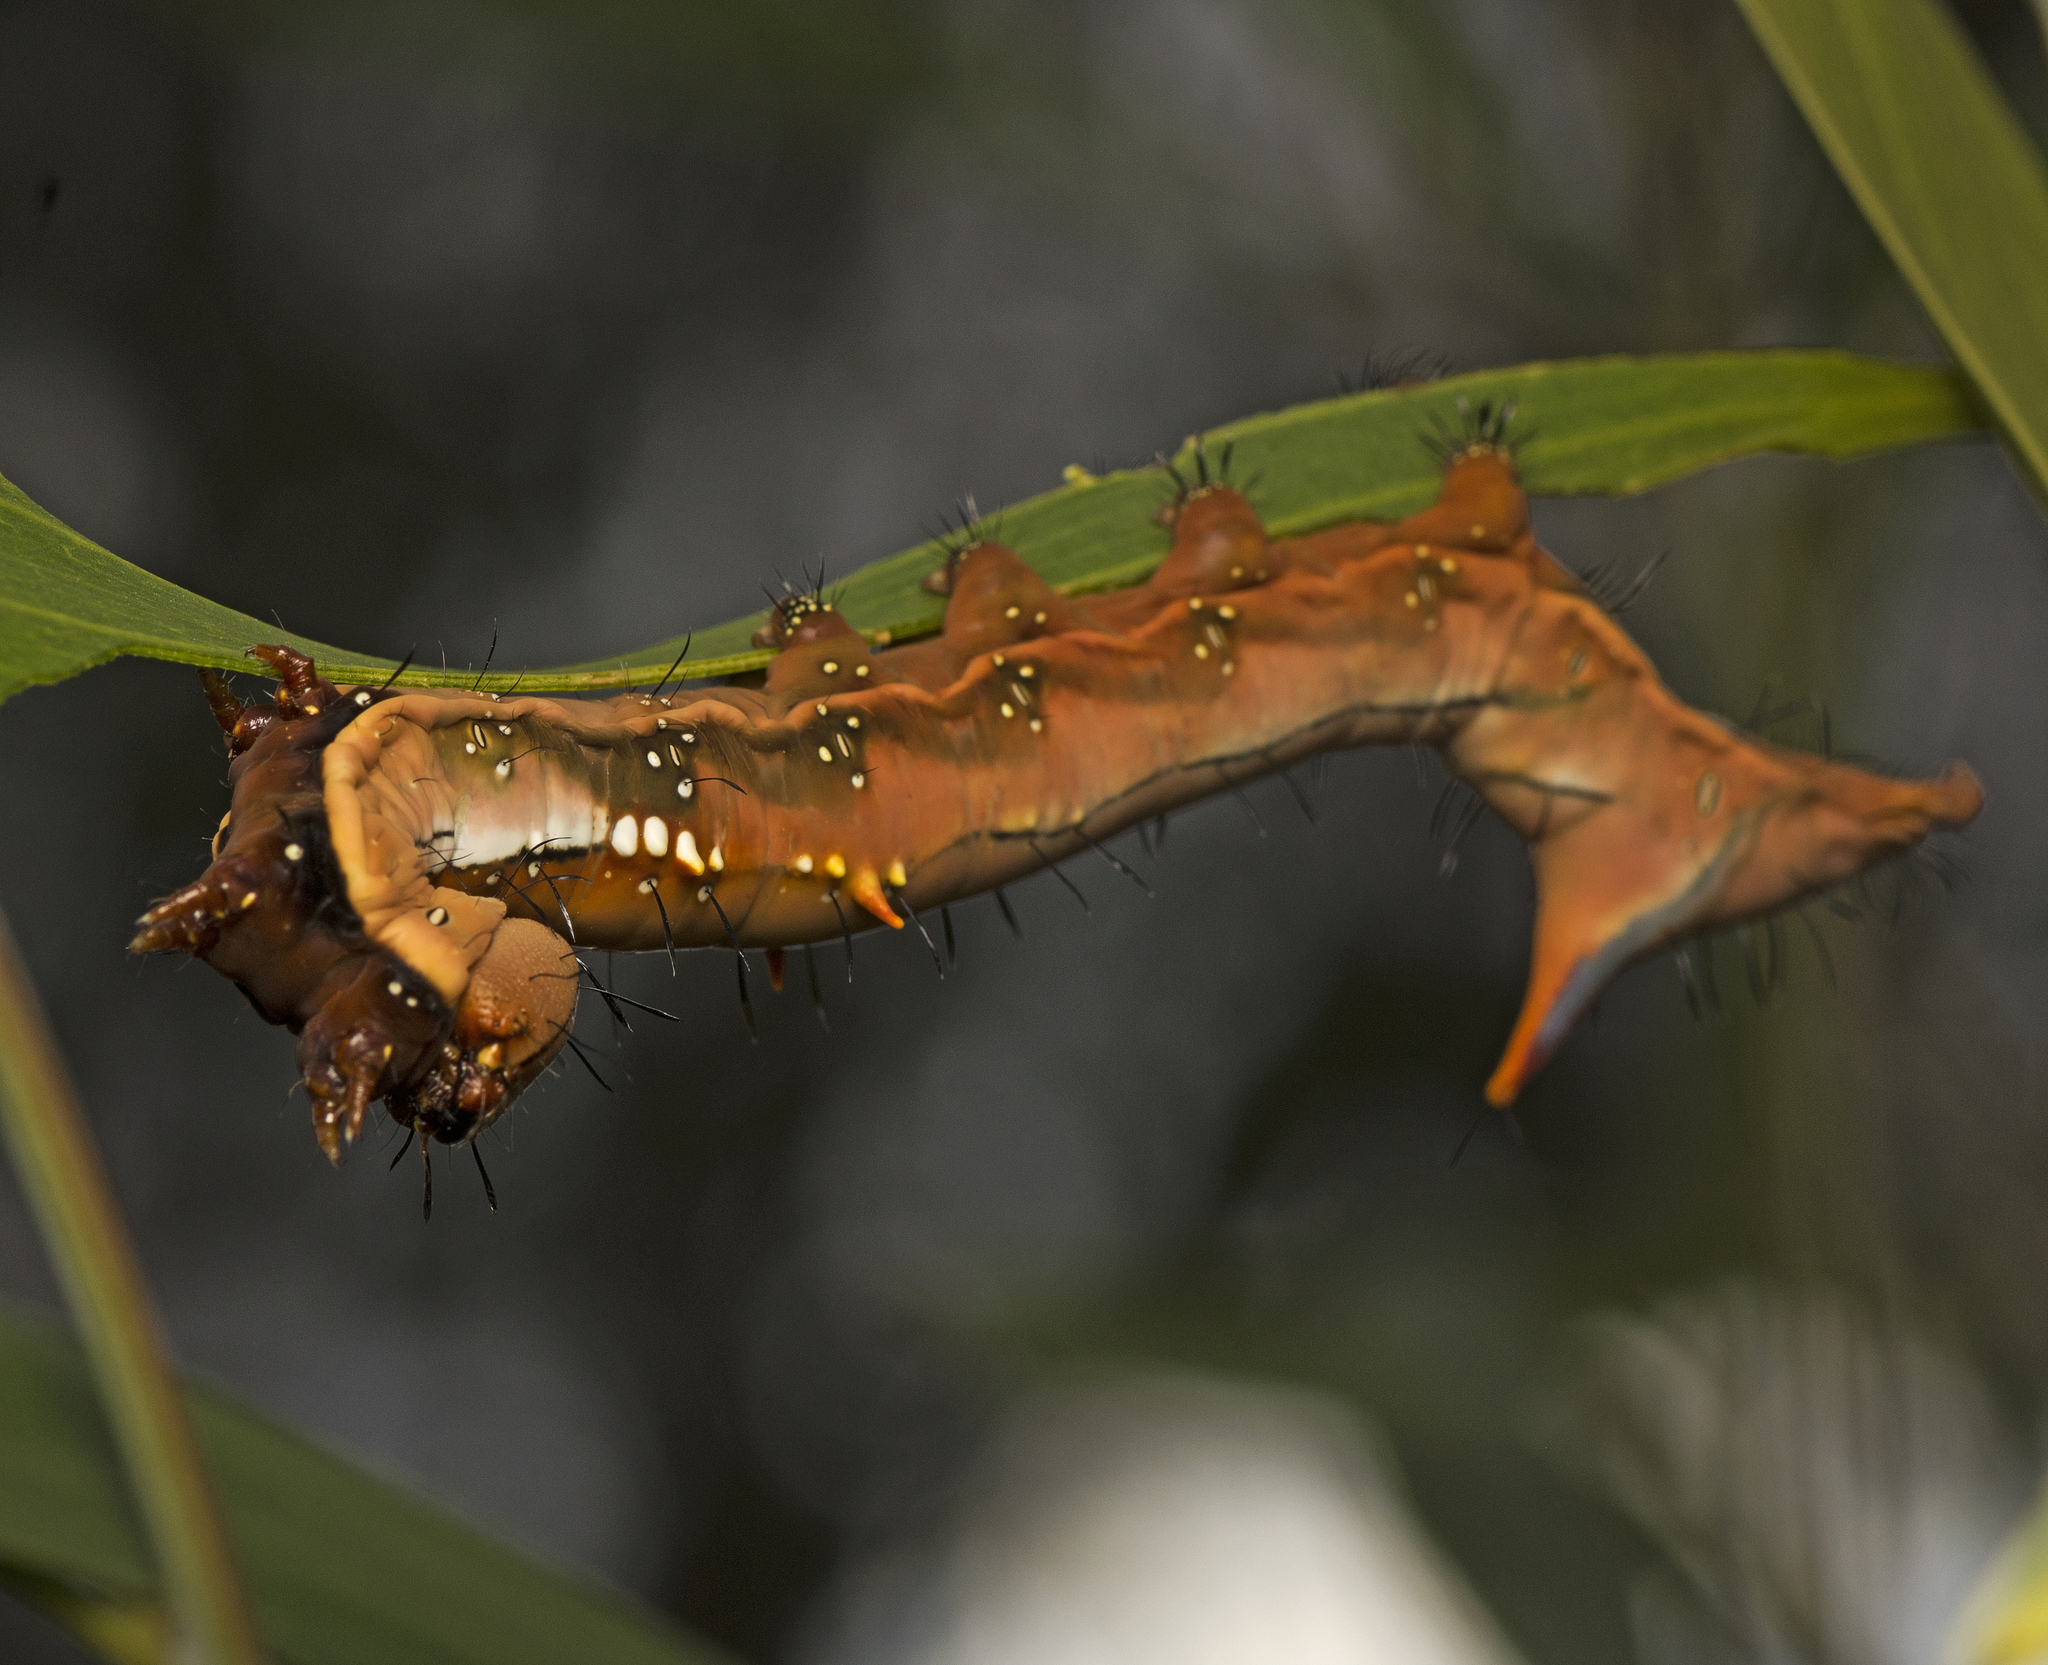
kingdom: Animalia
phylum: Arthropoda
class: Insecta
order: Lepidoptera
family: Notodontidae
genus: Neola
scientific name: Neola semiaurata
